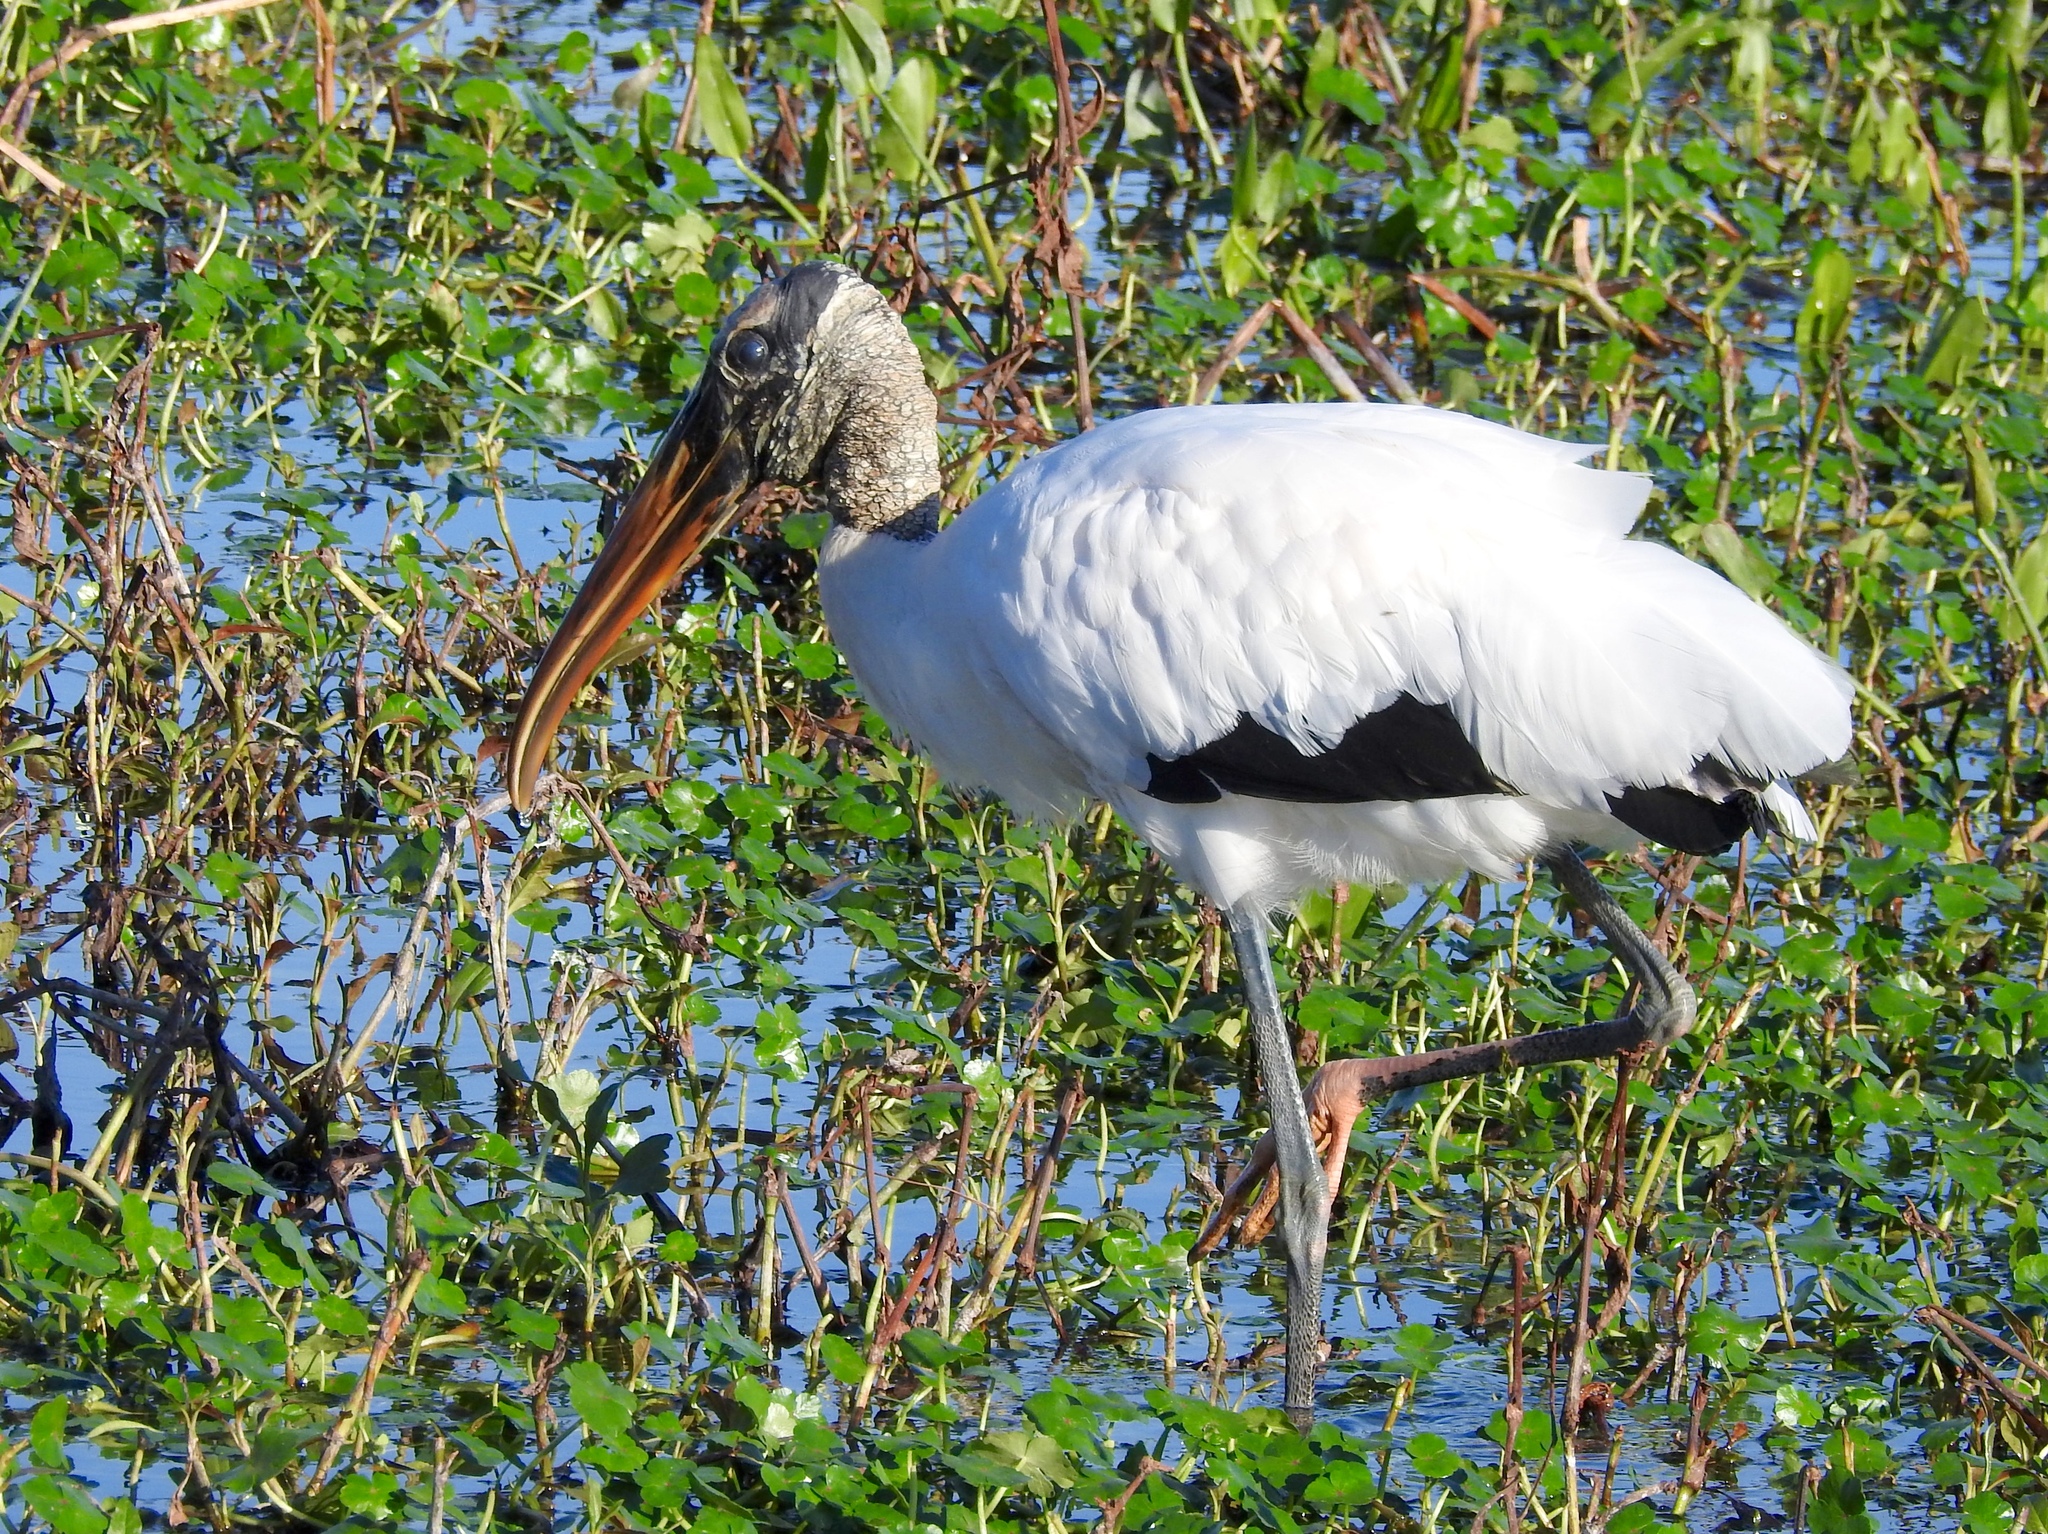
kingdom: Animalia
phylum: Chordata
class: Aves
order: Ciconiiformes
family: Ciconiidae
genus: Mycteria
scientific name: Mycteria americana
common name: Wood stork
